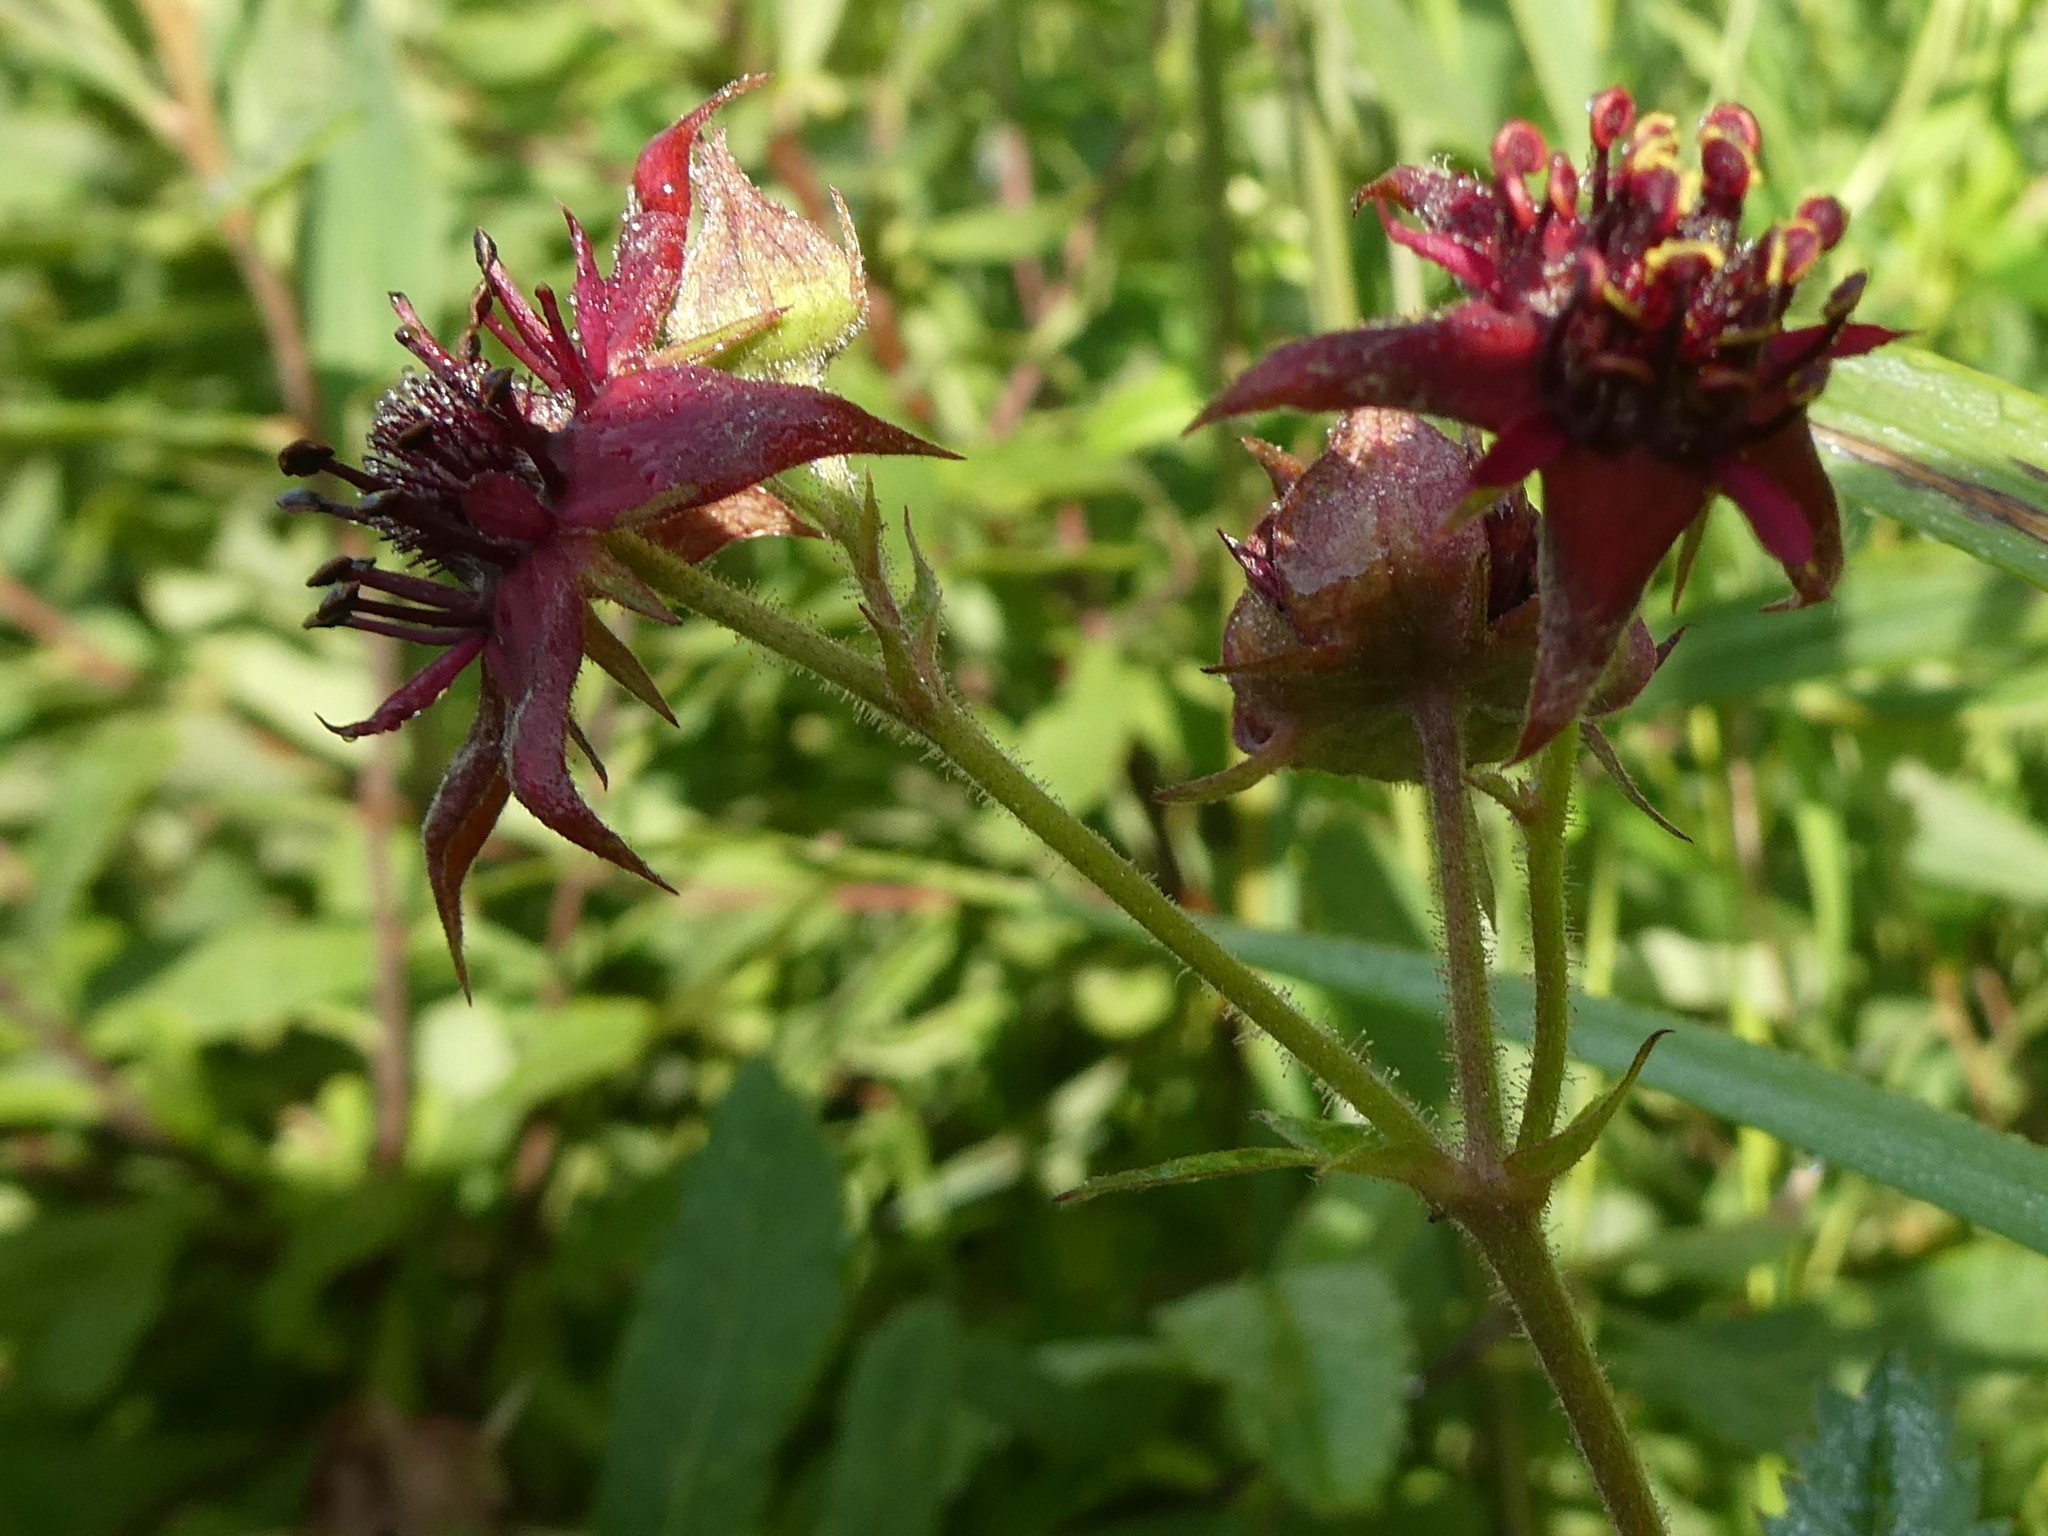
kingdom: Plantae
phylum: Tracheophyta
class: Magnoliopsida
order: Rosales
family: Rosaceae
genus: Comarum
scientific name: Comarum palustre
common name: Marsh cinquefoil
